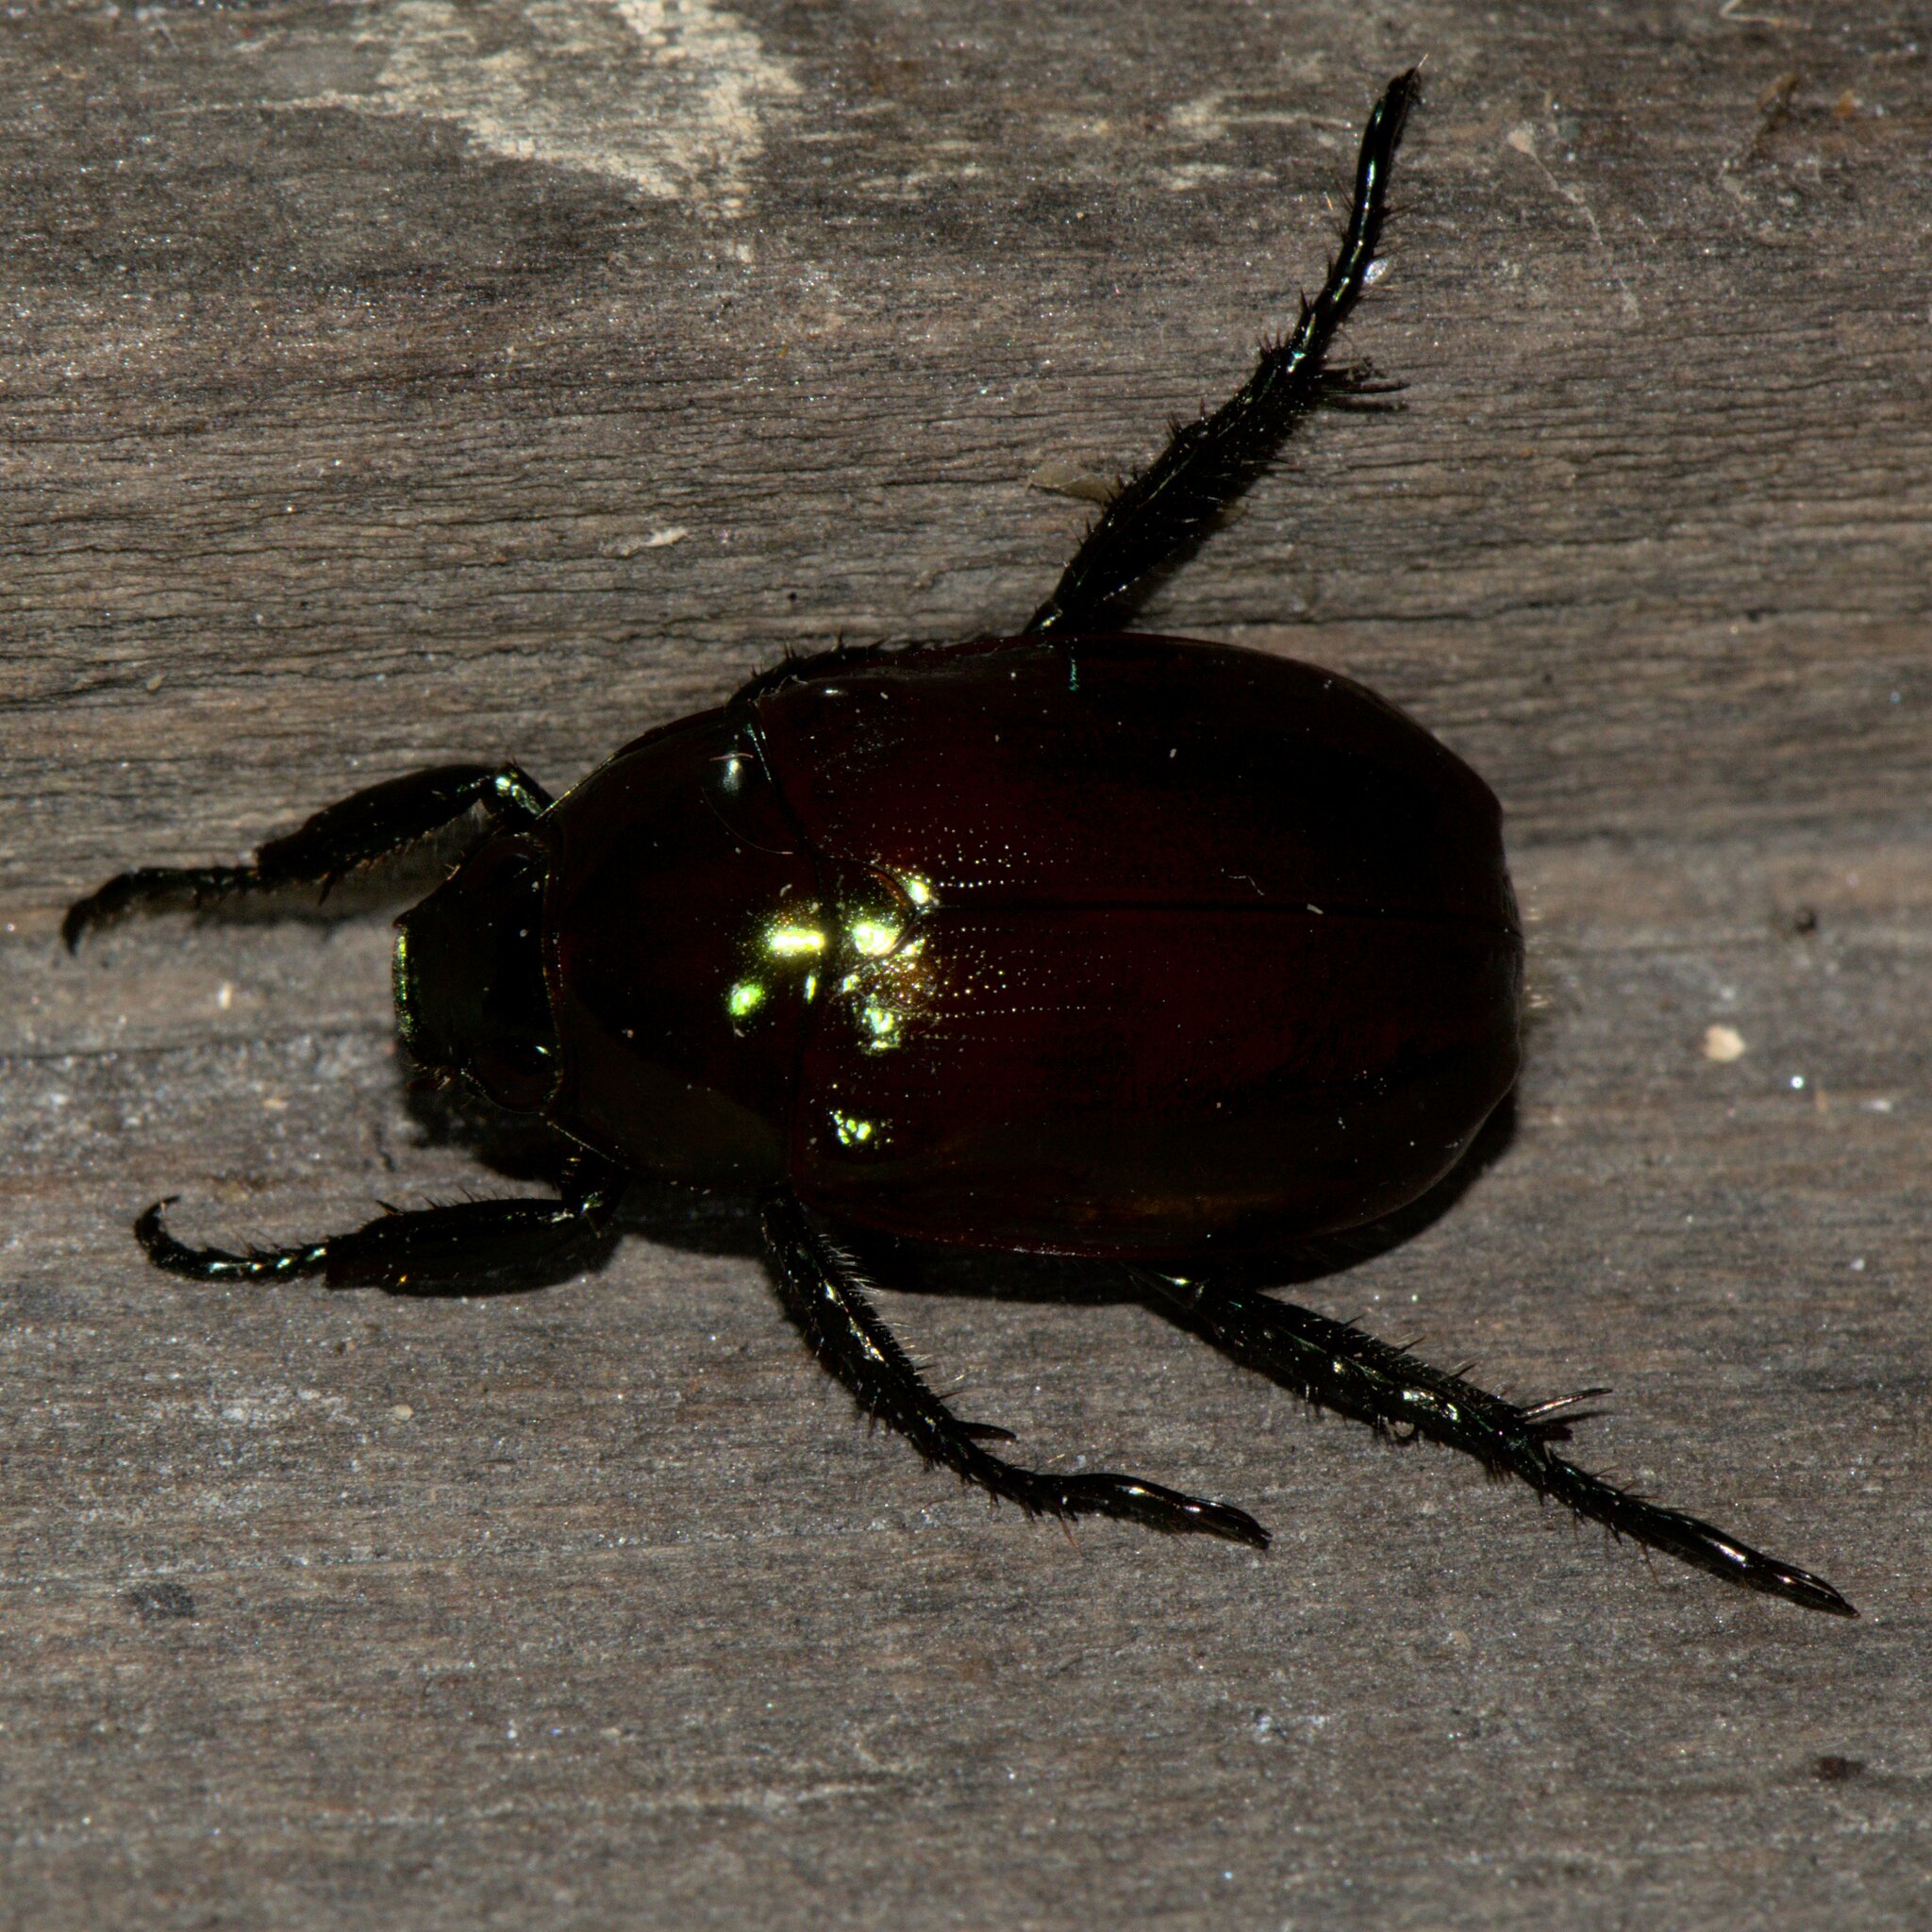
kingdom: Animalia
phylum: Arthropoda
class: Insecta
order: Coleoptera
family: Scarabaeidae
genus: Anomala
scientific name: Anomala rufiventris
